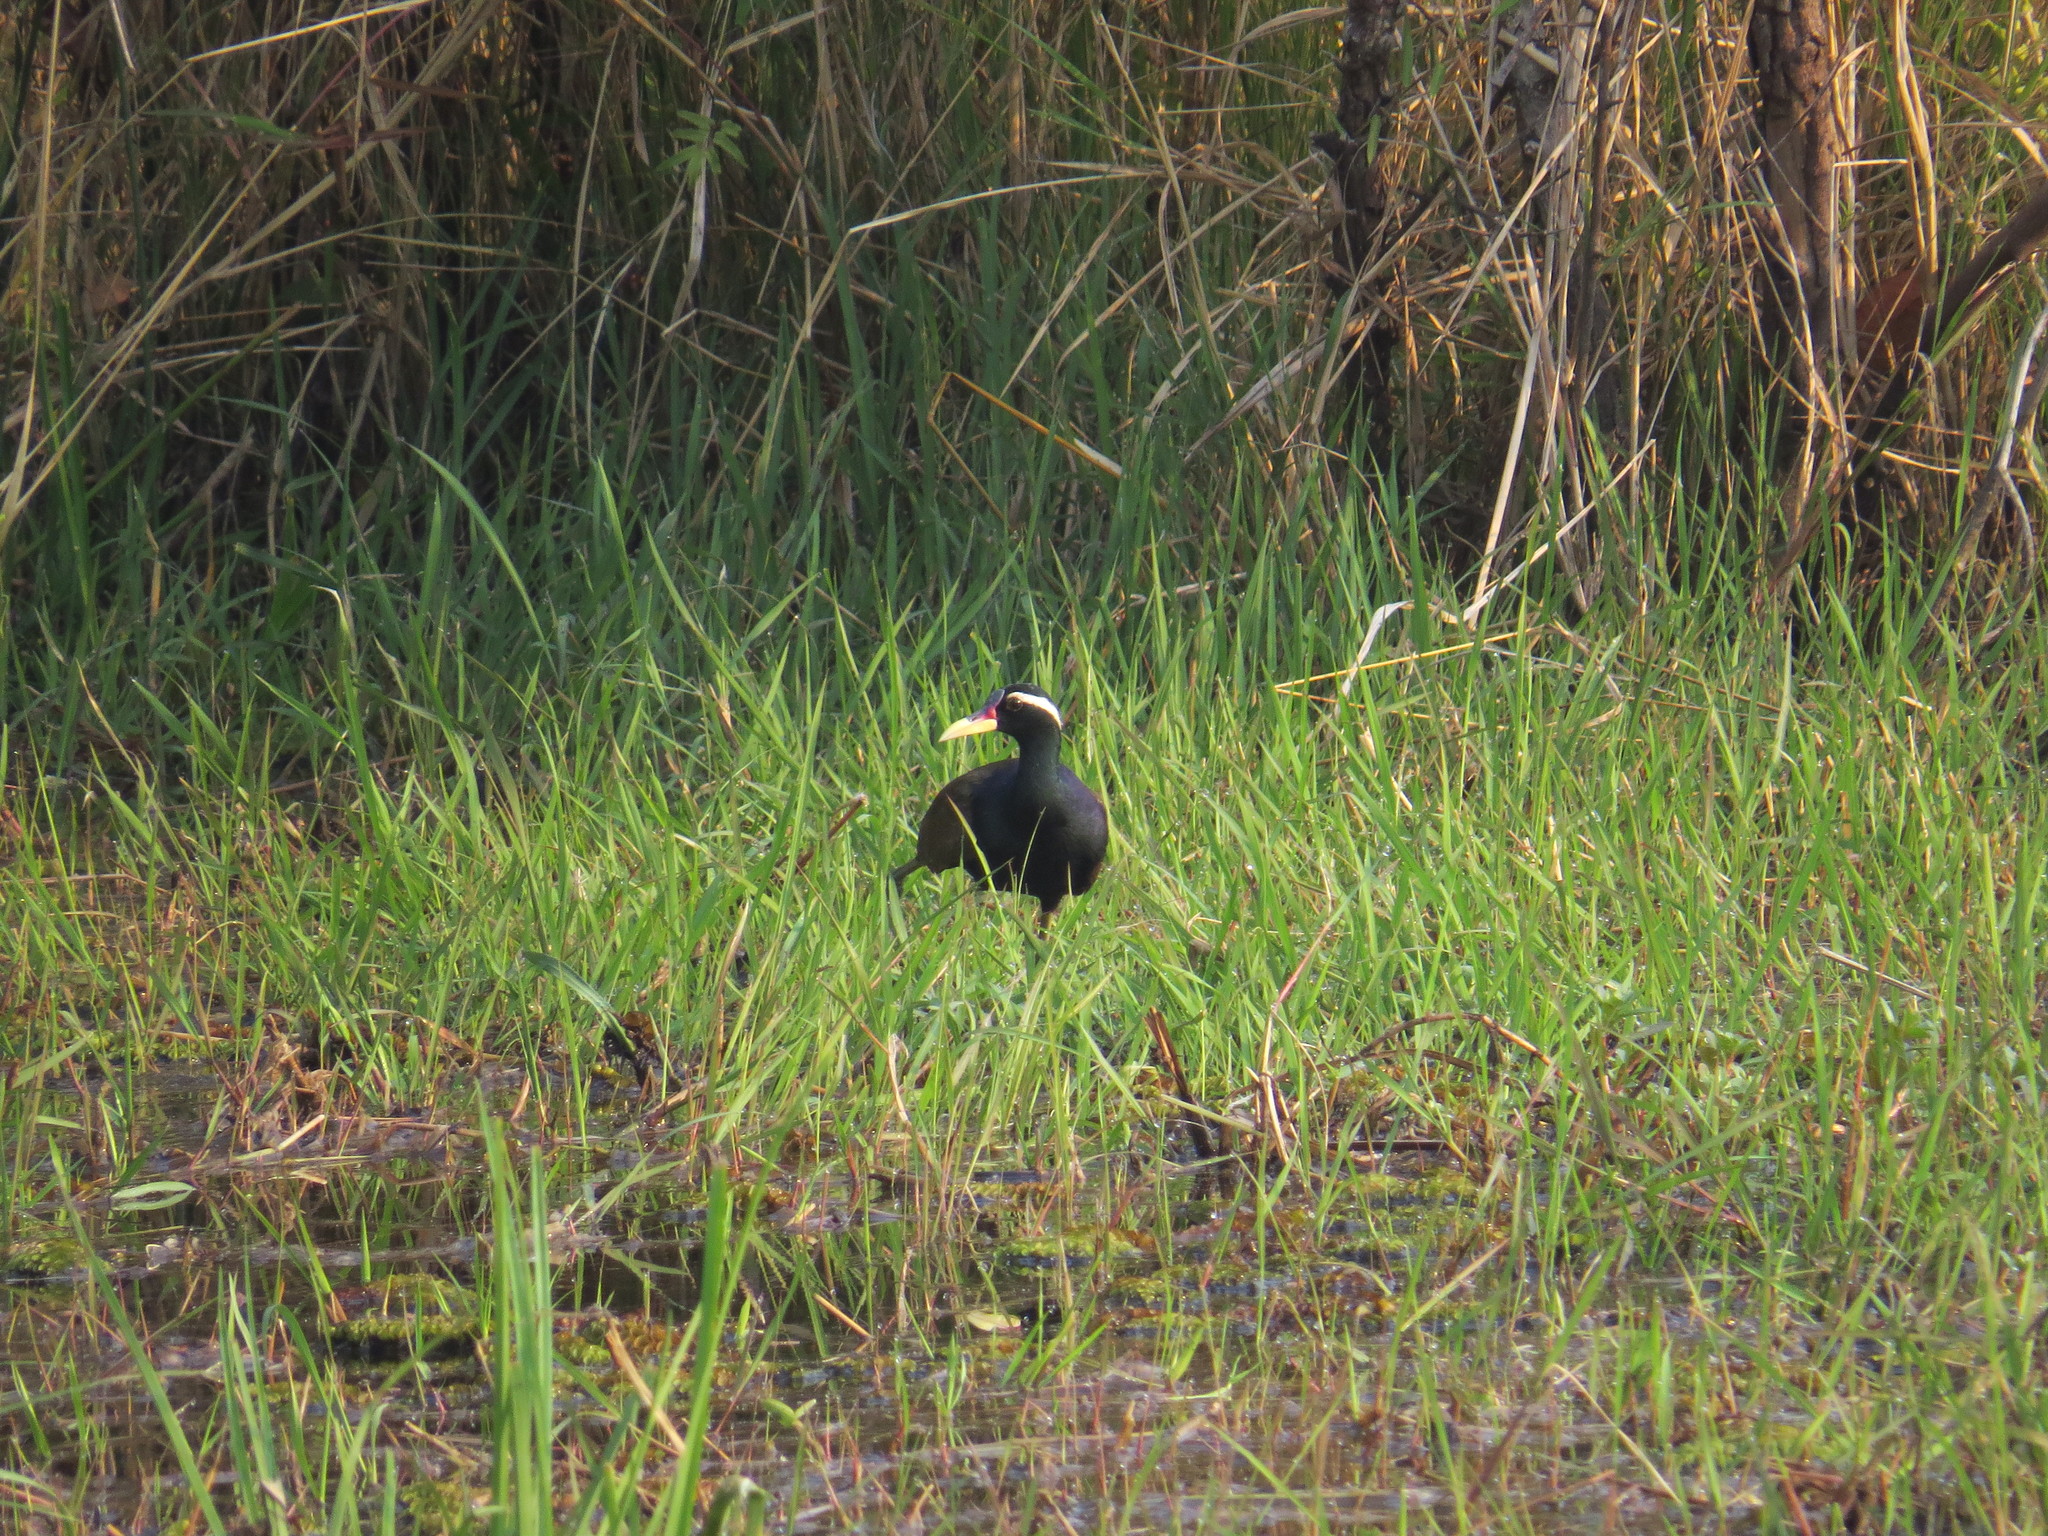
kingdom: Animalia
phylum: Chordata
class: Aves
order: Charadriiformes
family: Jacanidae
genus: Metopidius
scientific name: Metopidius indicus
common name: Bronze-winged jacana
